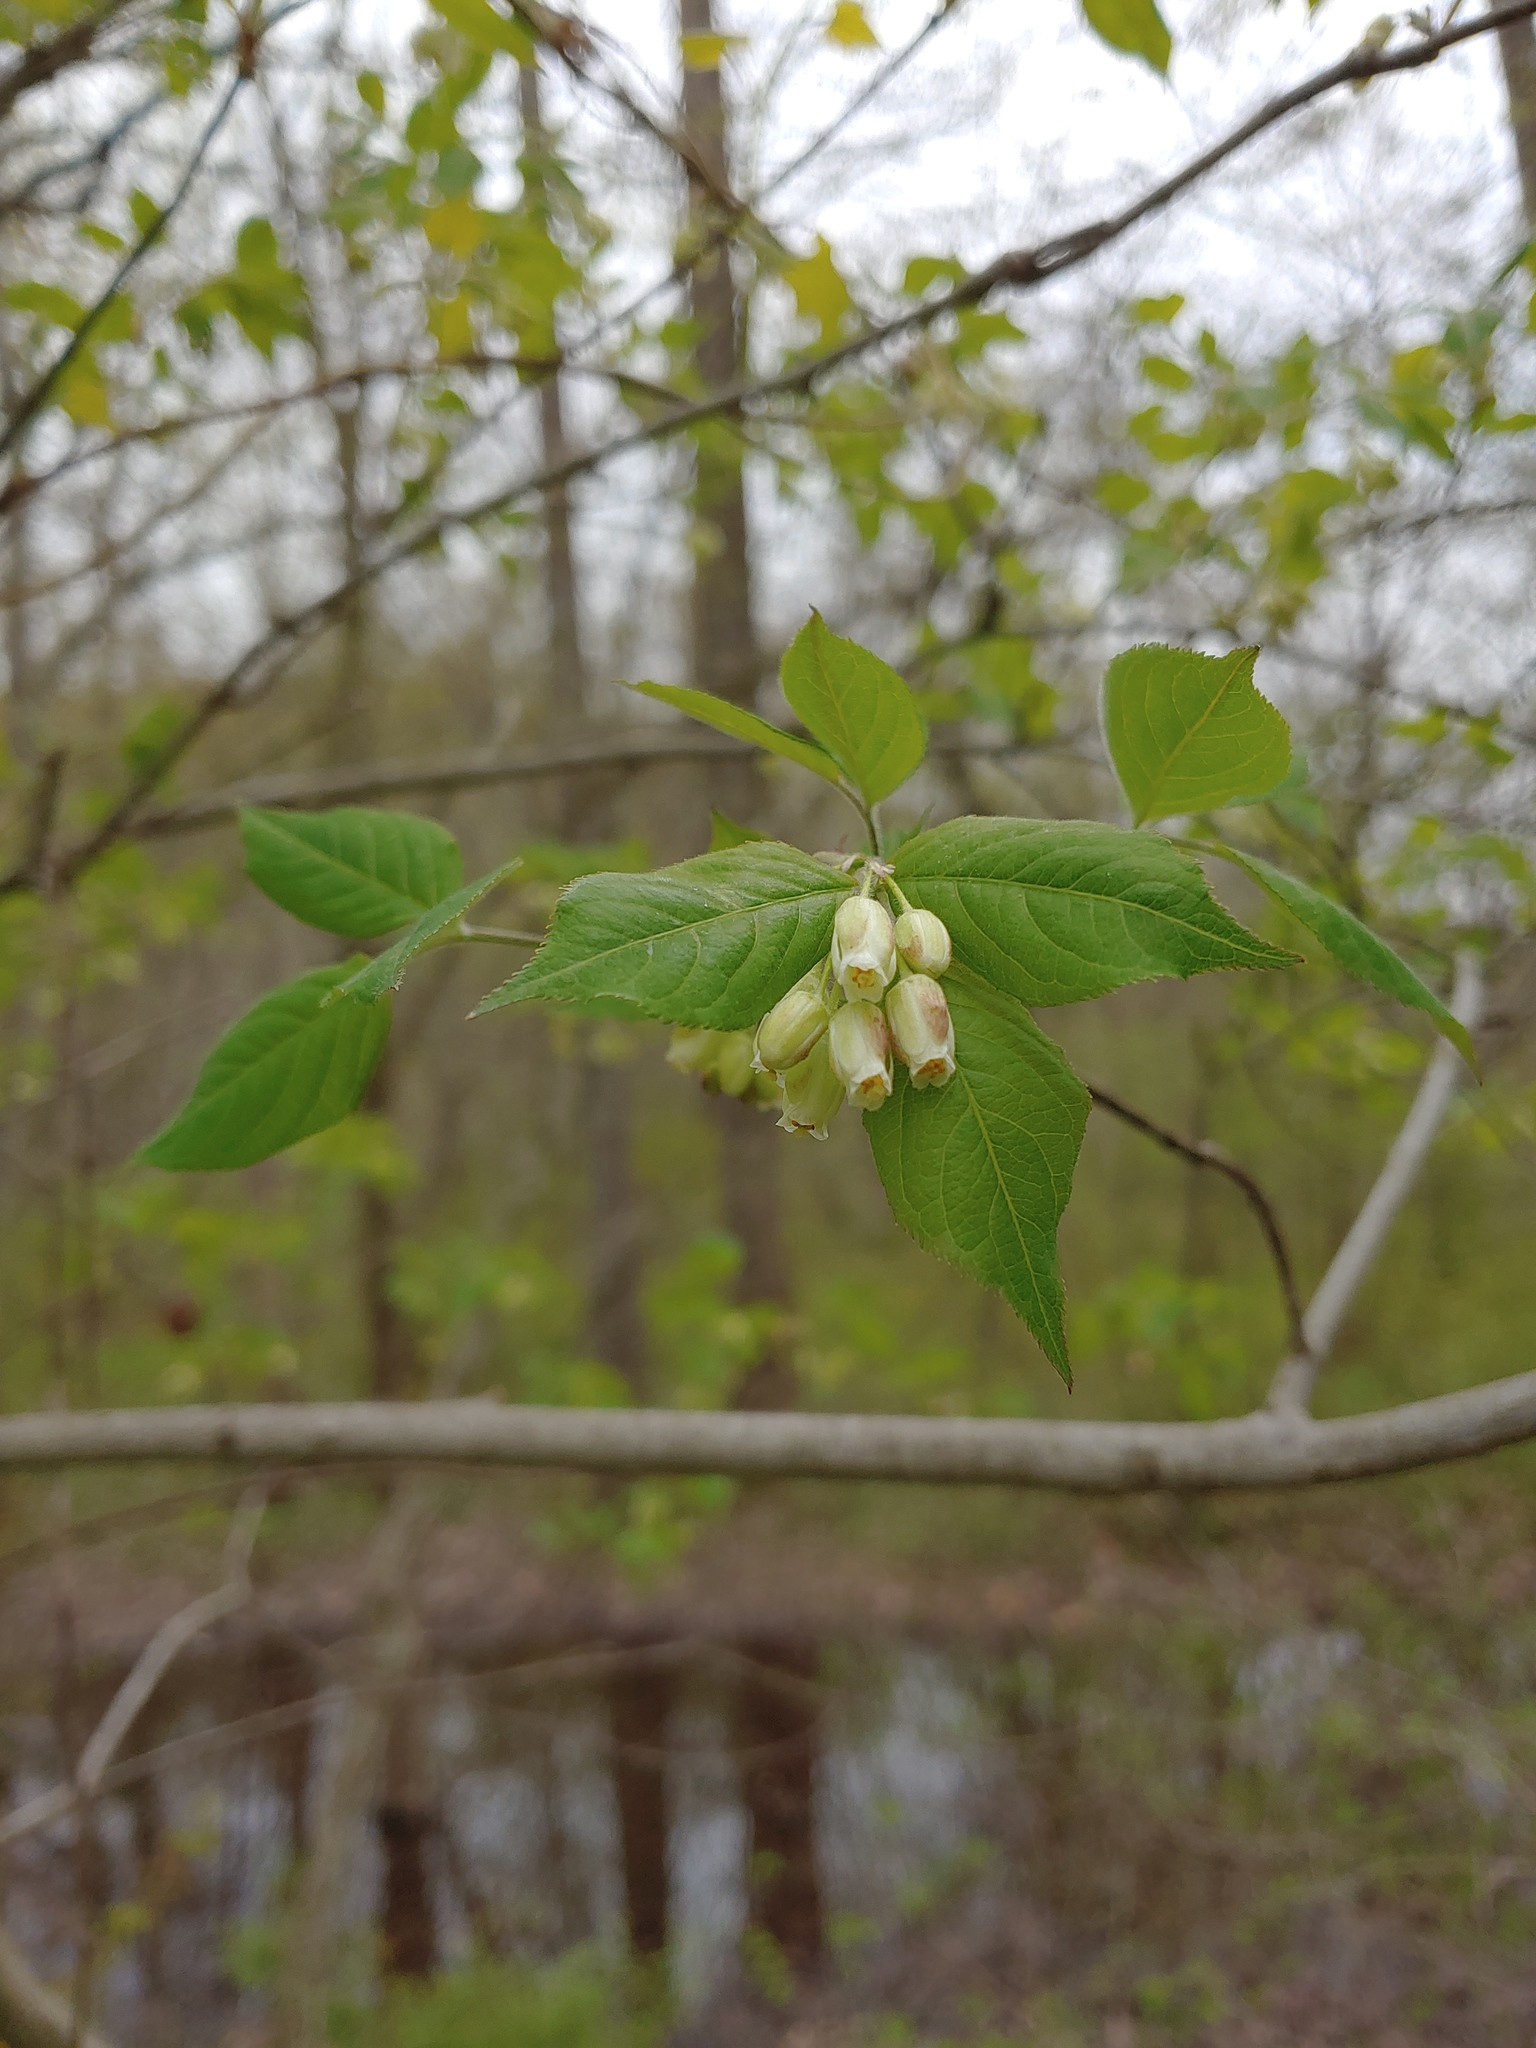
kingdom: Plantae
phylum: Tracheophyta
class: Magnoliopsida
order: Crossosomatales
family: Staphyleaceae
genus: Staphylea
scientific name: Staphylea trifolia
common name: American bladdernut
